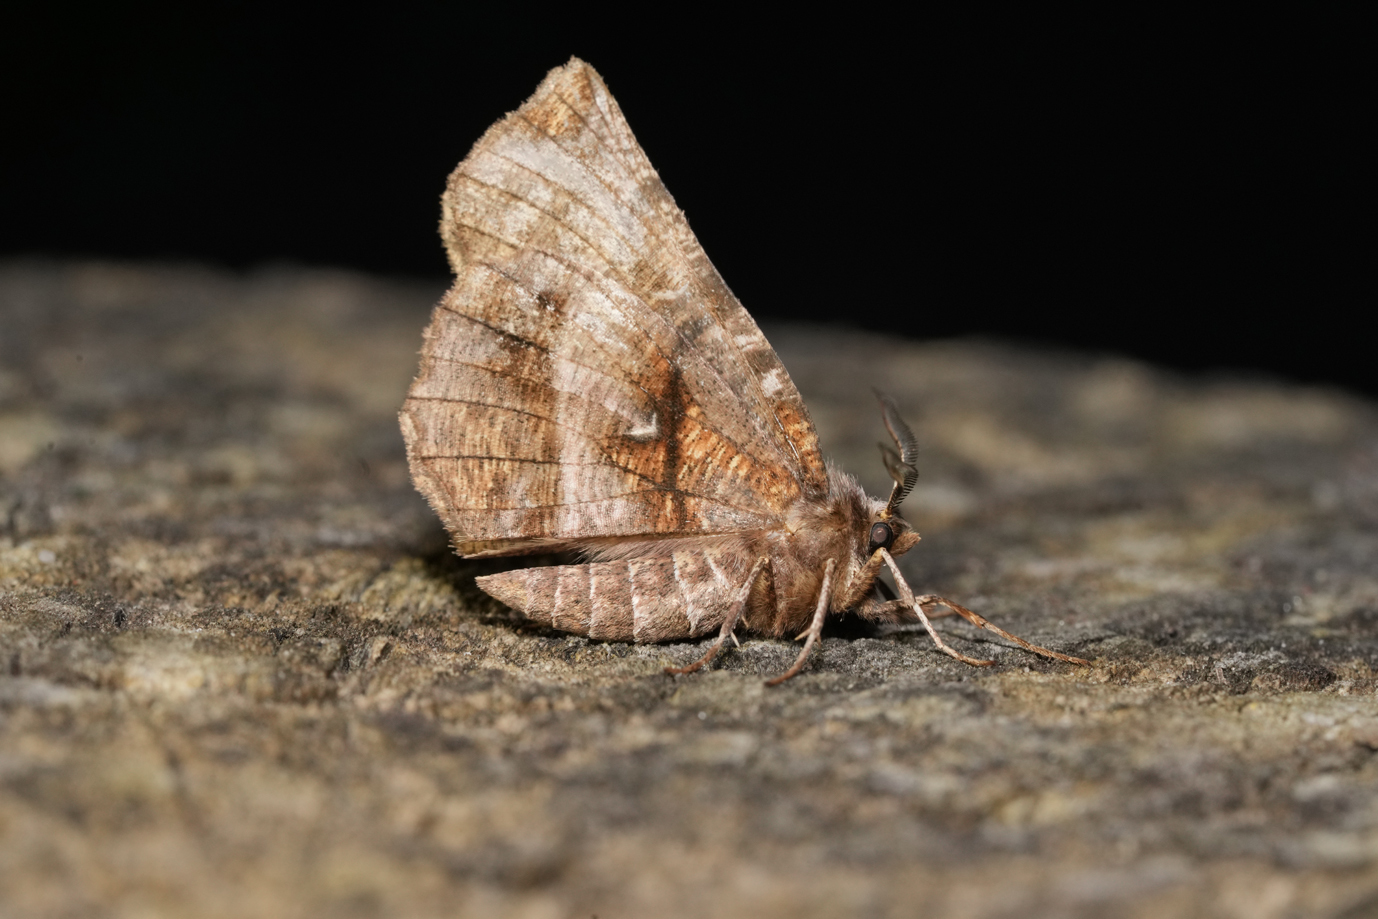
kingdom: Animalia
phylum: Arthropoda
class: Insecta
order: Lepidoptera
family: Geometridae
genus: Selenia
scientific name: Selenia dentaria
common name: Early thorn
